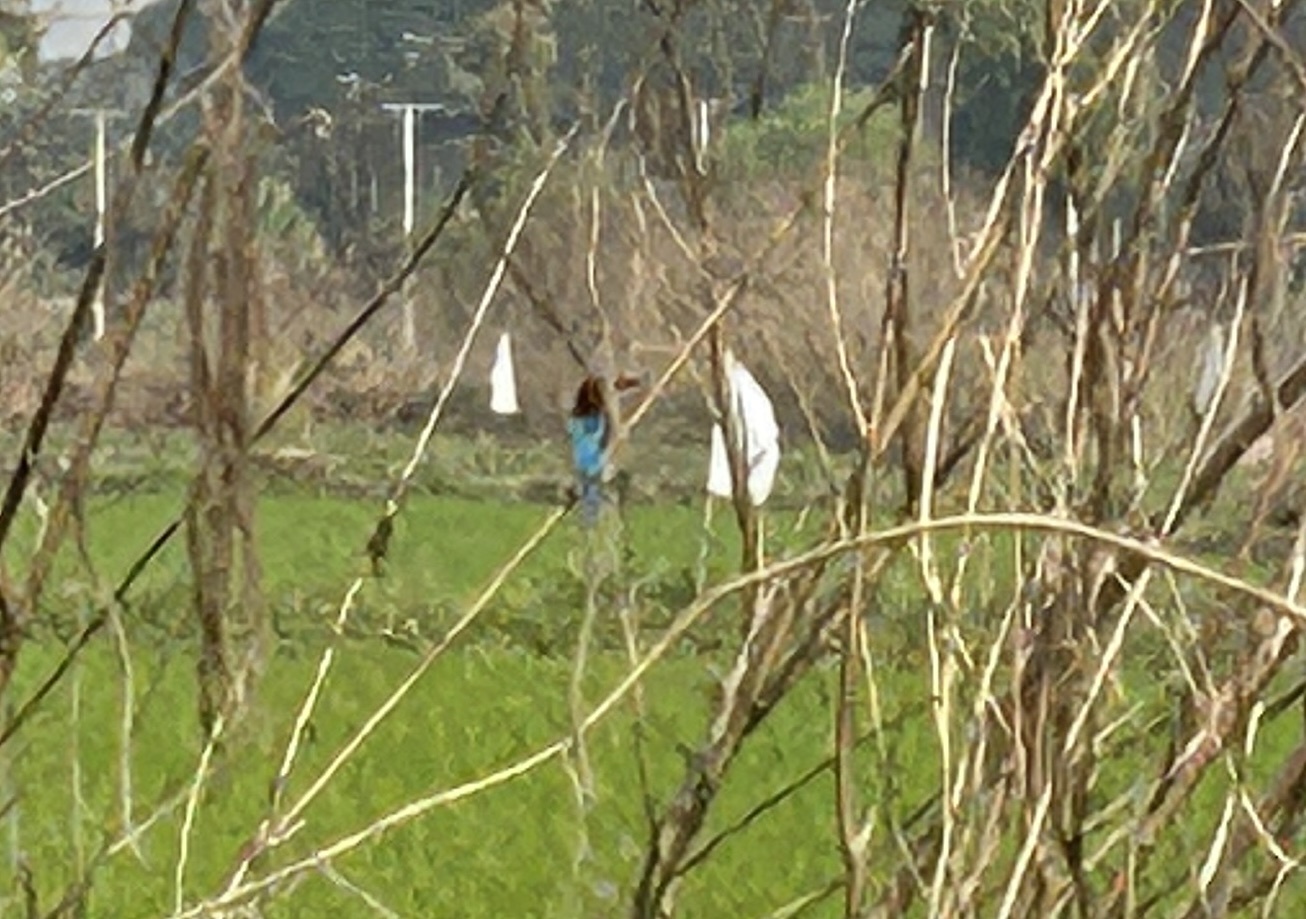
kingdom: Animalia
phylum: Chordata
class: Aves
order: Coraciiformes
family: Alcedinidae
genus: Halcyon
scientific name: Halcyon smyrnensis
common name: White-throated kingfisher
